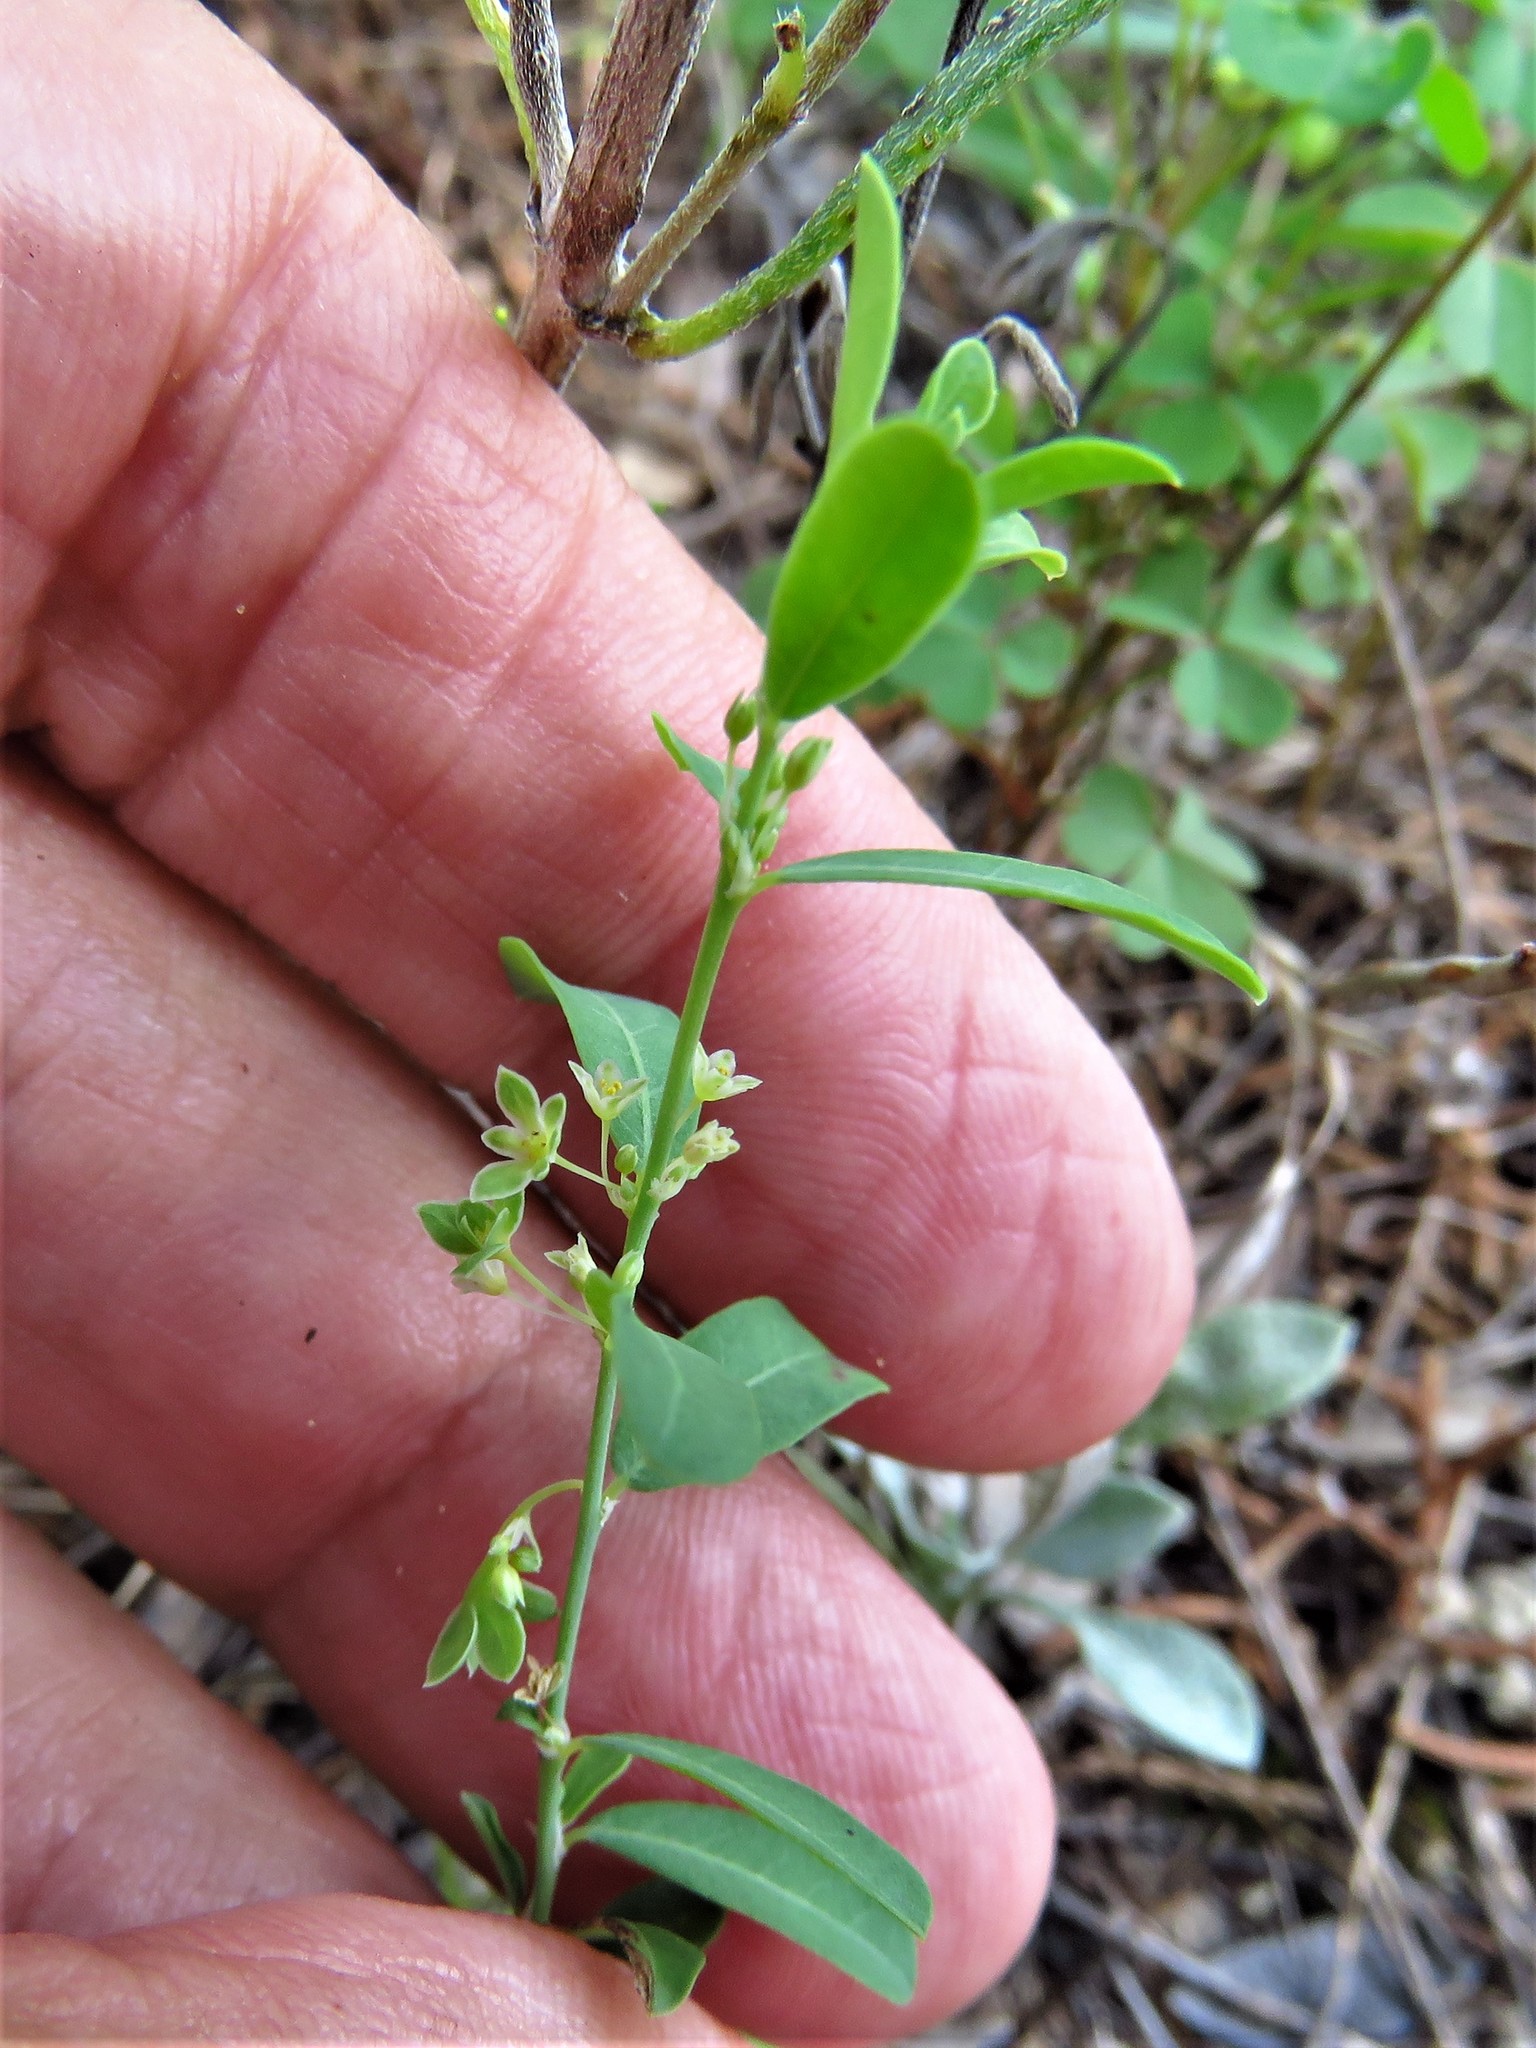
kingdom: Plantae
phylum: Tracheophyta
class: Magnoliopsida
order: Malpighiales
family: Phyllanthaceae
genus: Phyllanthus
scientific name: Phyllanthus polygonoides
